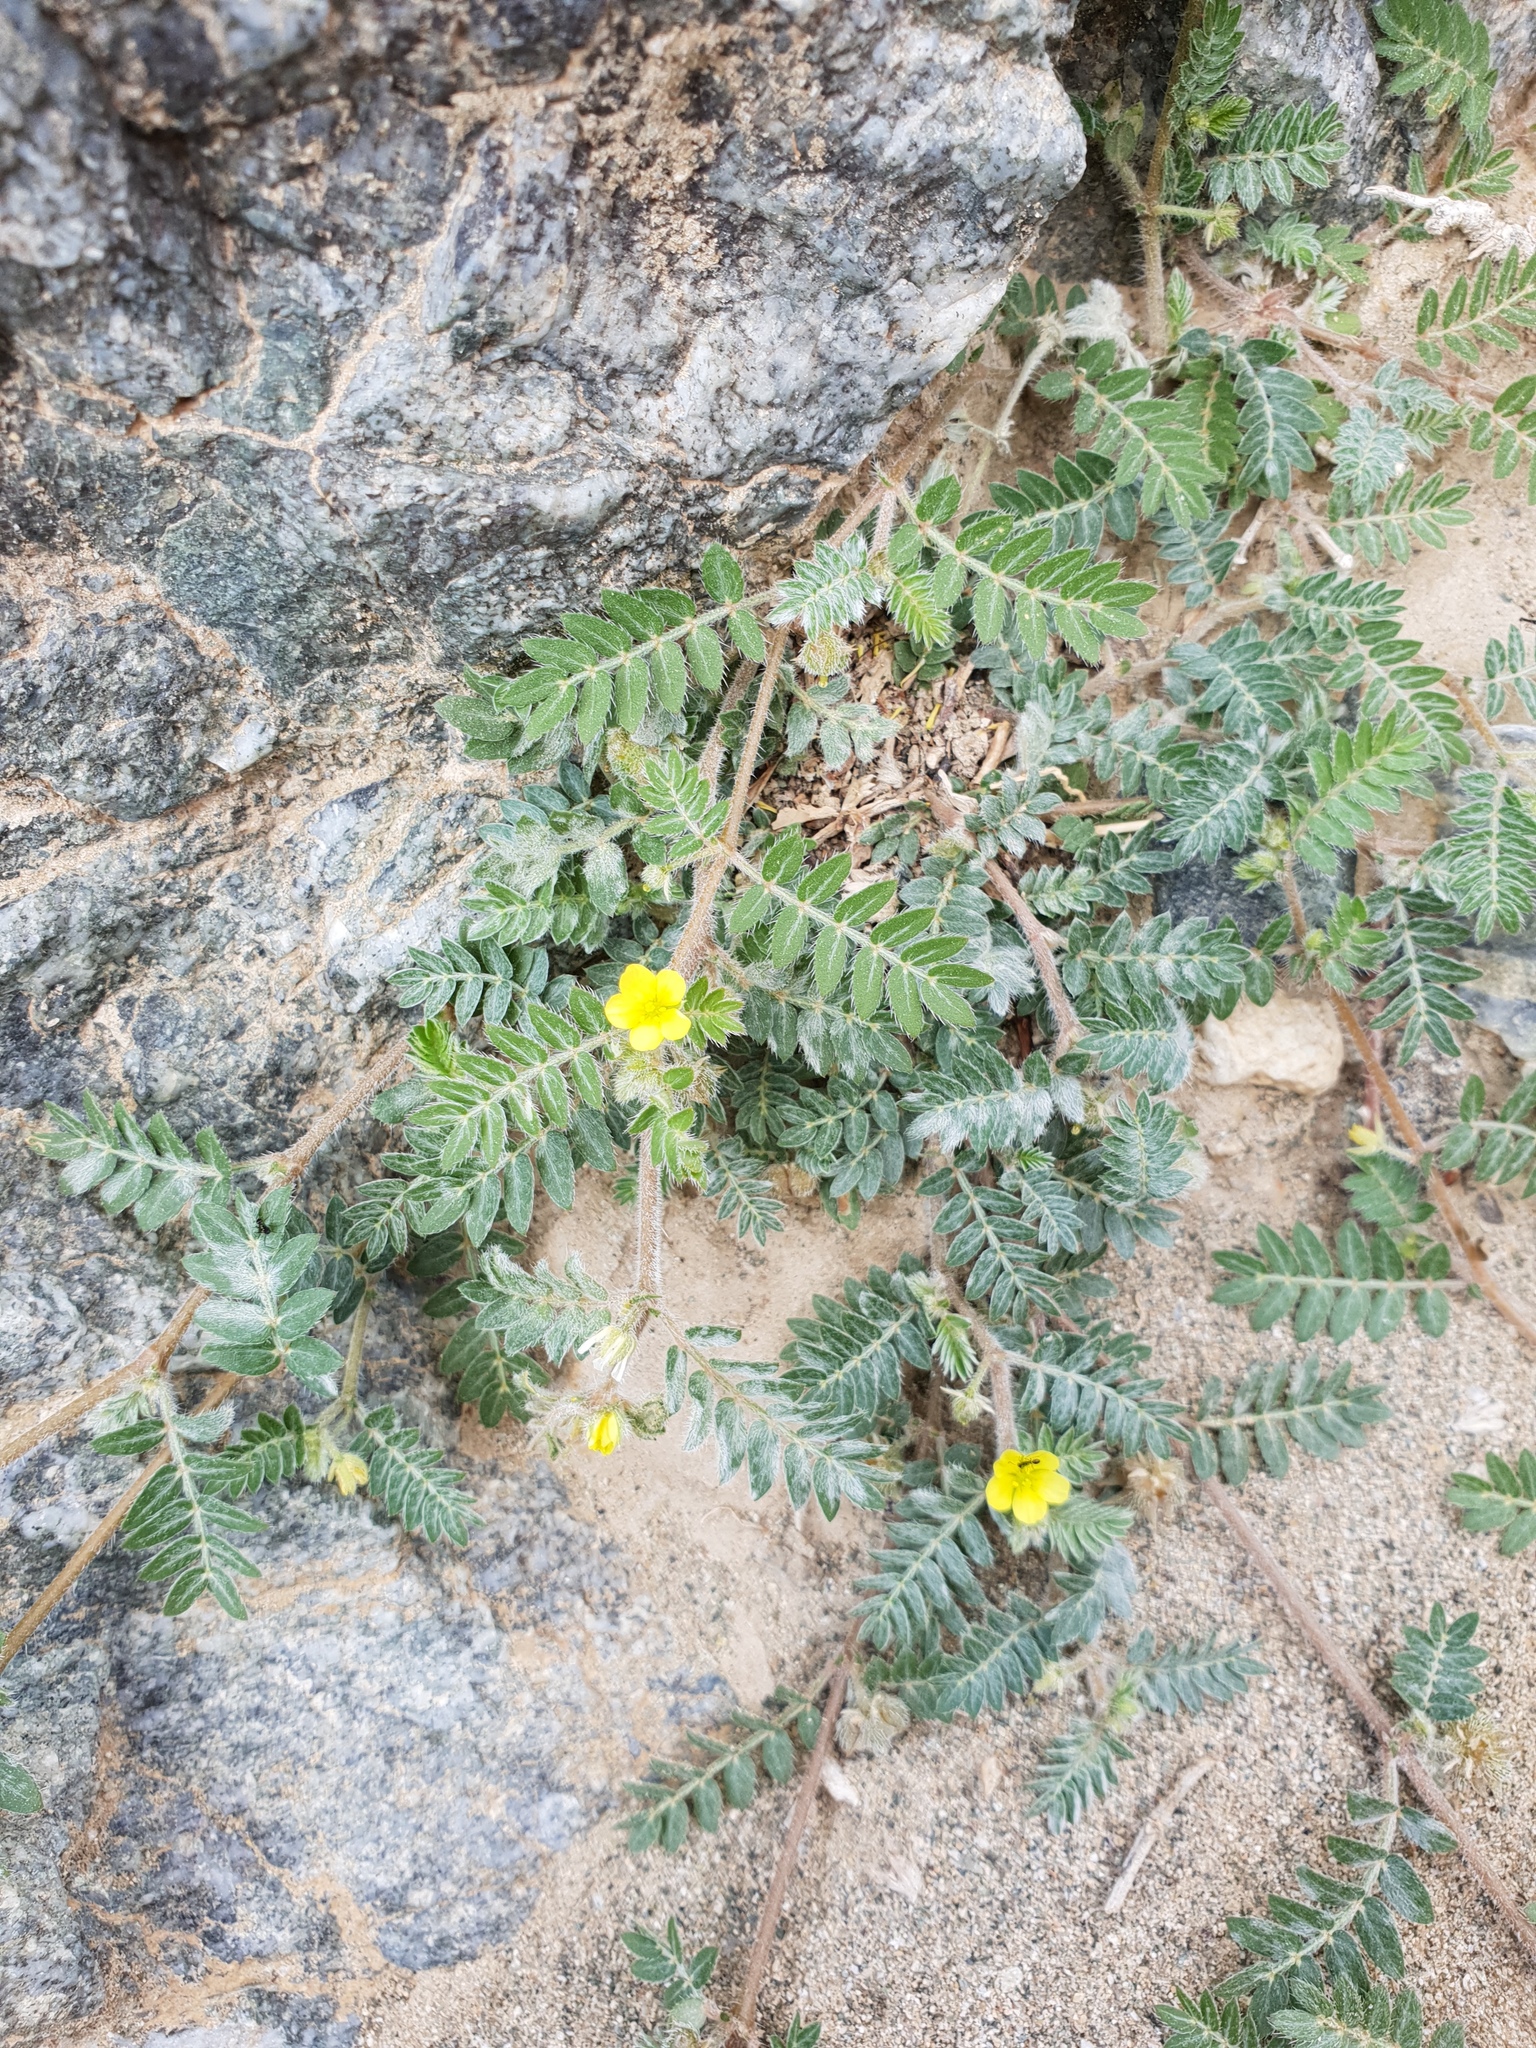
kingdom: Plantae
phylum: Tracheophyta
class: Magnoliopsida
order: Zygophyllales
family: Zygophyllaceae
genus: Tribulus
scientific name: Tribulus terrestris
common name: Puncturevine
